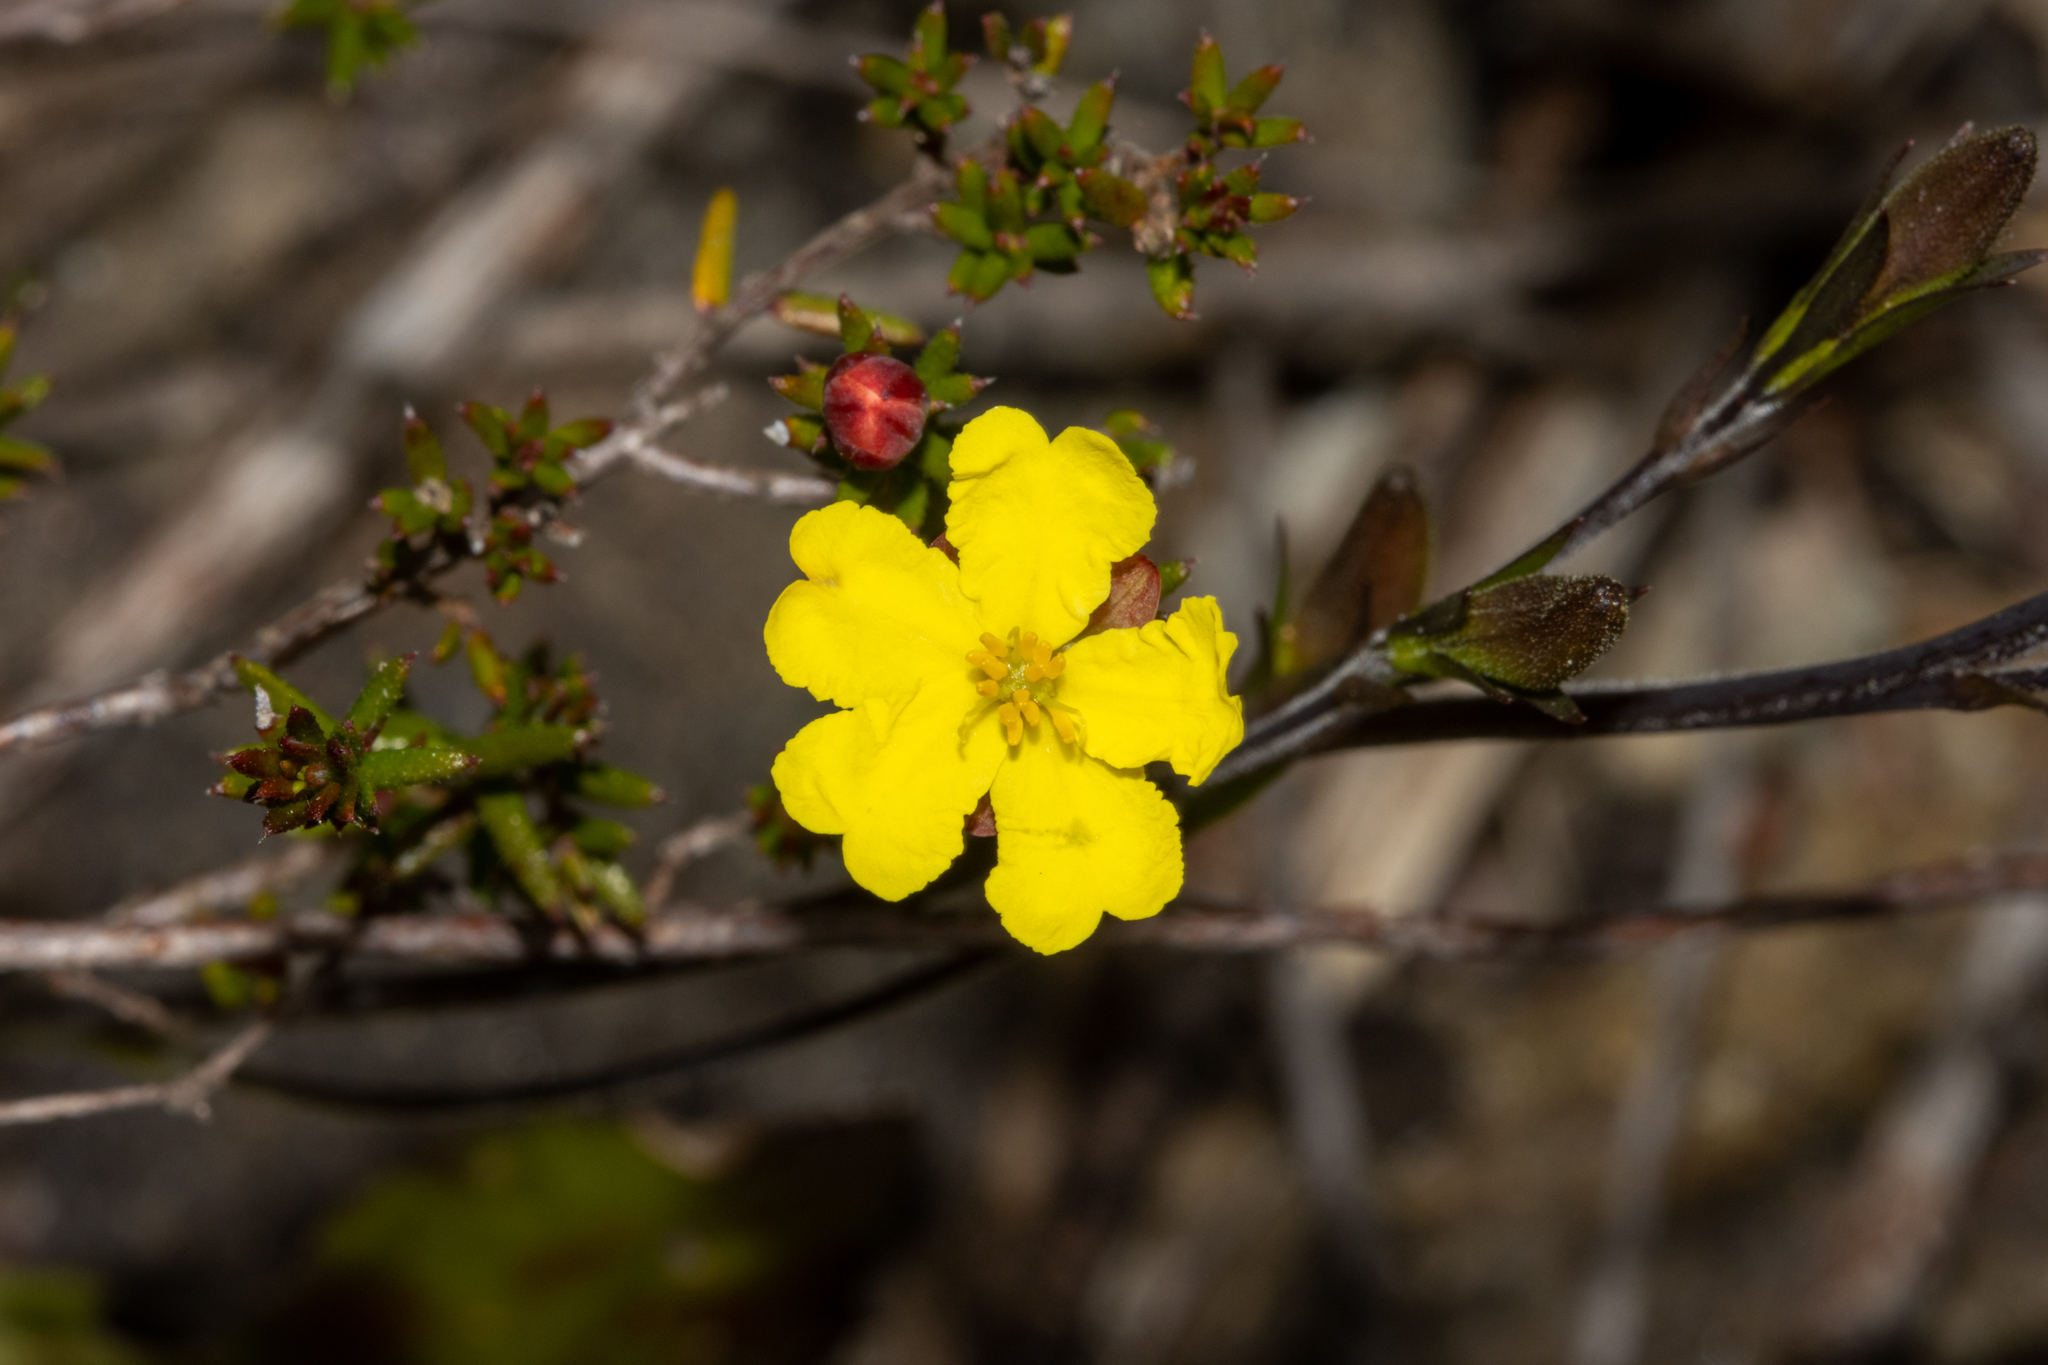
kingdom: Plantae
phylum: Tracheophyta
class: Magnoliopsida
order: Dilleniales
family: Dilleniaceae
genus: Hibbertia
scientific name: Hibbertia intermedia
